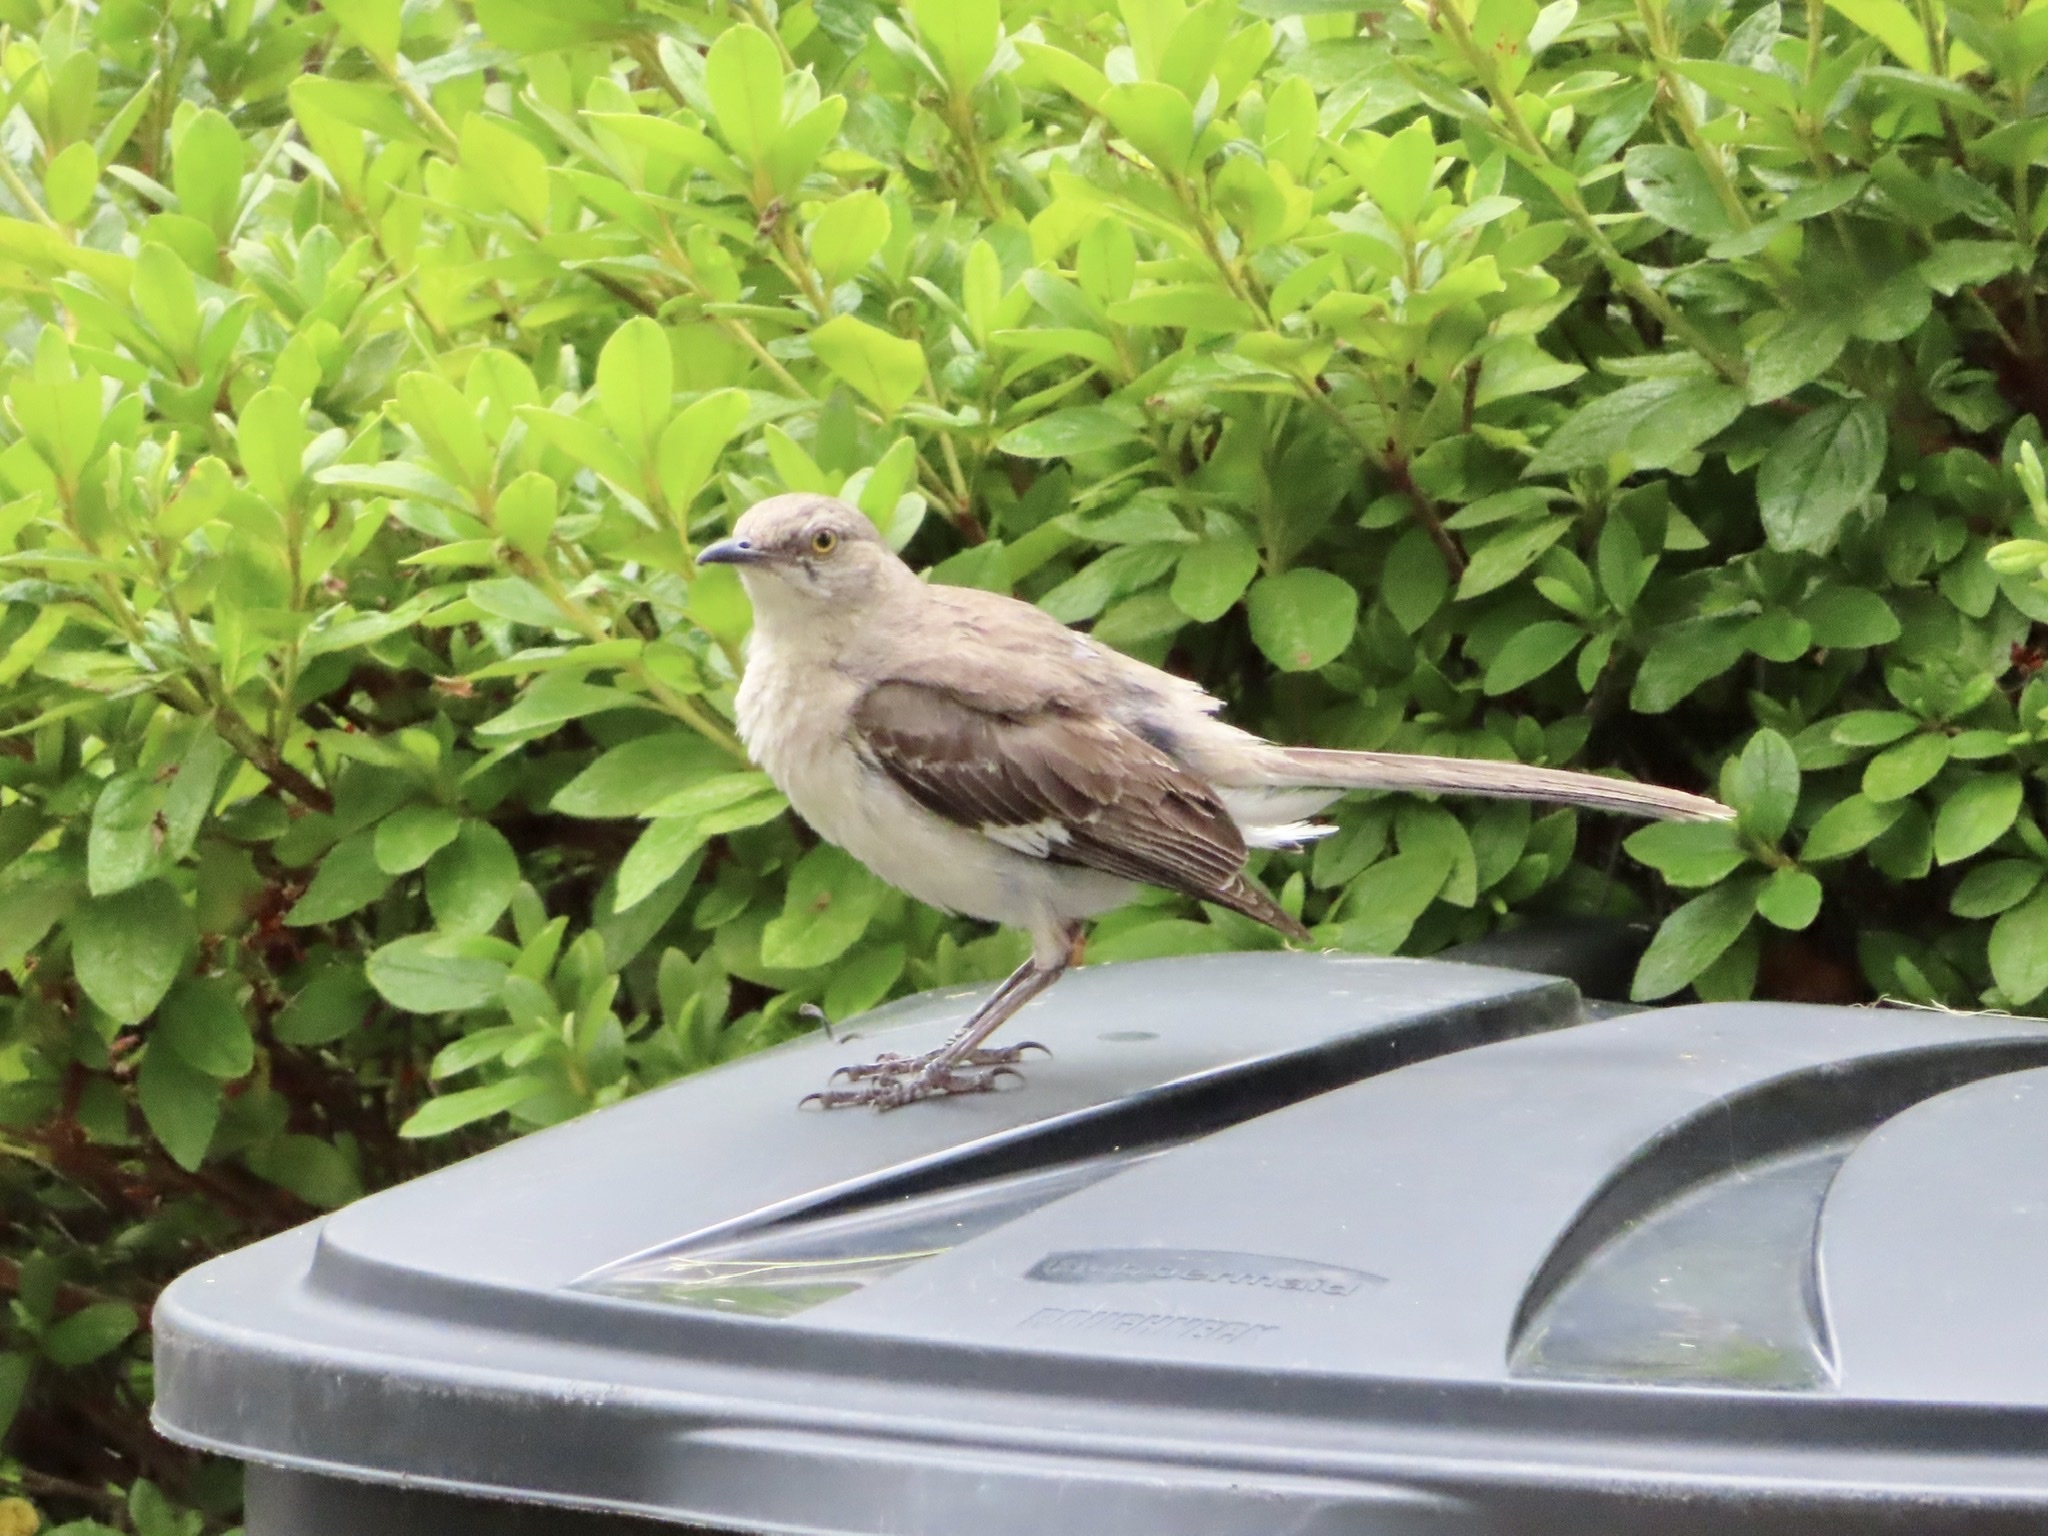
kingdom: Animalia
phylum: Chordata
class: Aves
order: Passeriformes
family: Mimidae
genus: Mimus
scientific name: Mimus polyglottos
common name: Northern mockingbird
